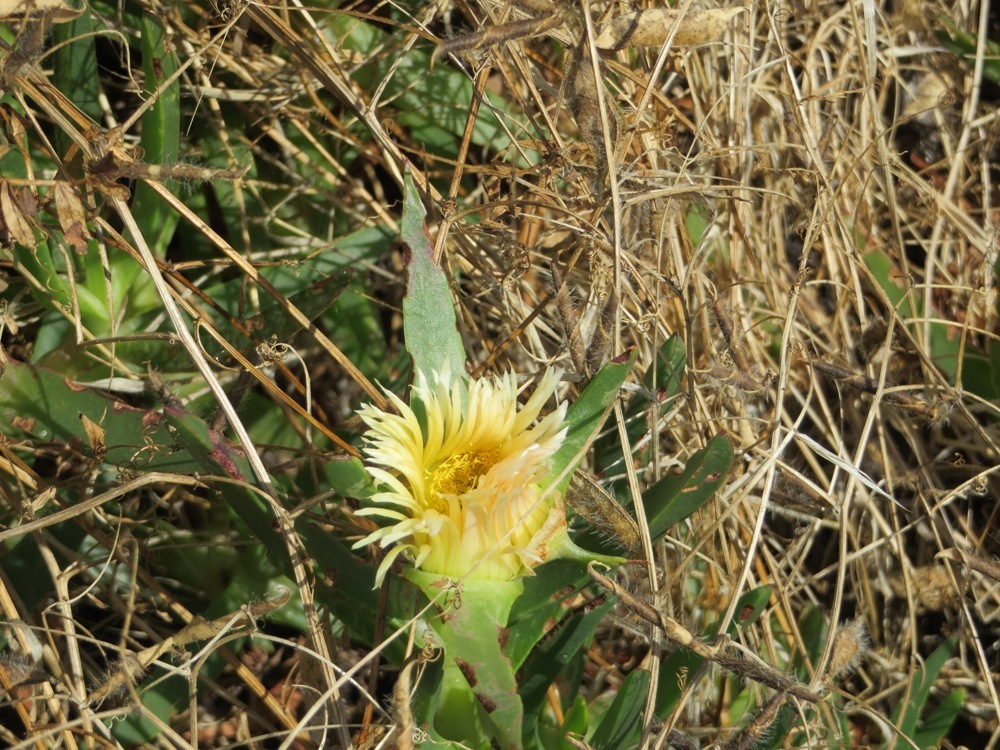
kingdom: Plantae
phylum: Tracheophyta
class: Magnoliopsida
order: Caryophyllales
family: Aizoaceae
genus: Carpobrotus
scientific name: Carpobrotus edulis
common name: Hottentot-fig
